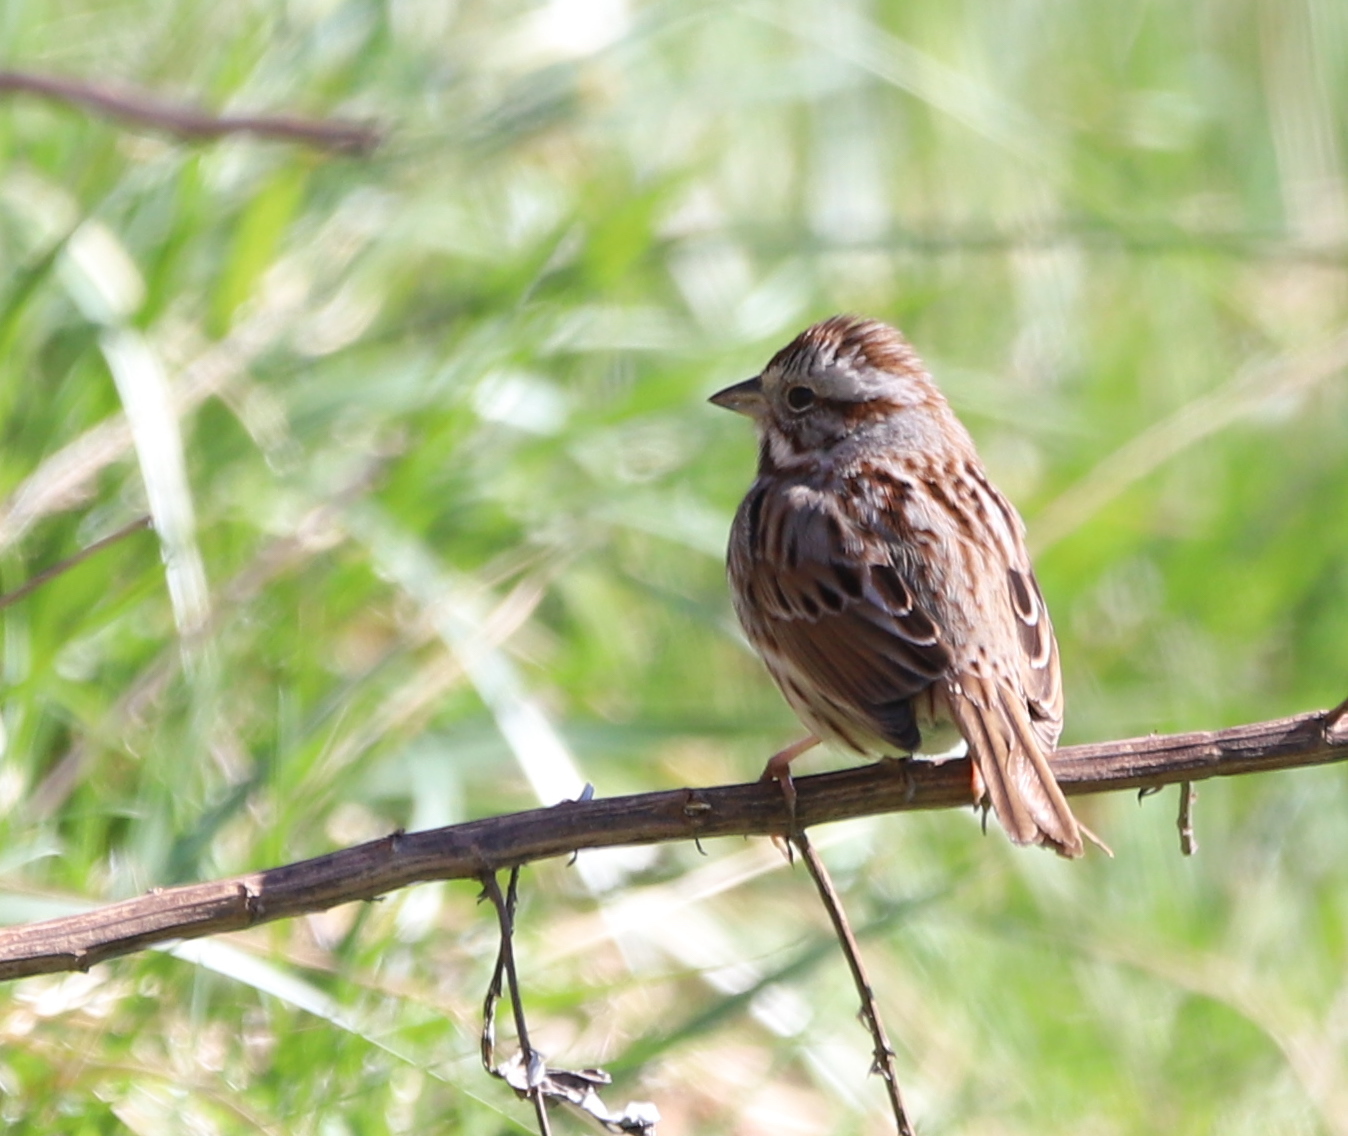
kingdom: Animalia
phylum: Chordata
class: Aves
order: Passeriformes
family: Passerellidae
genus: Melospiza
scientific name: Melospiza melodia
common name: Song sparrow
